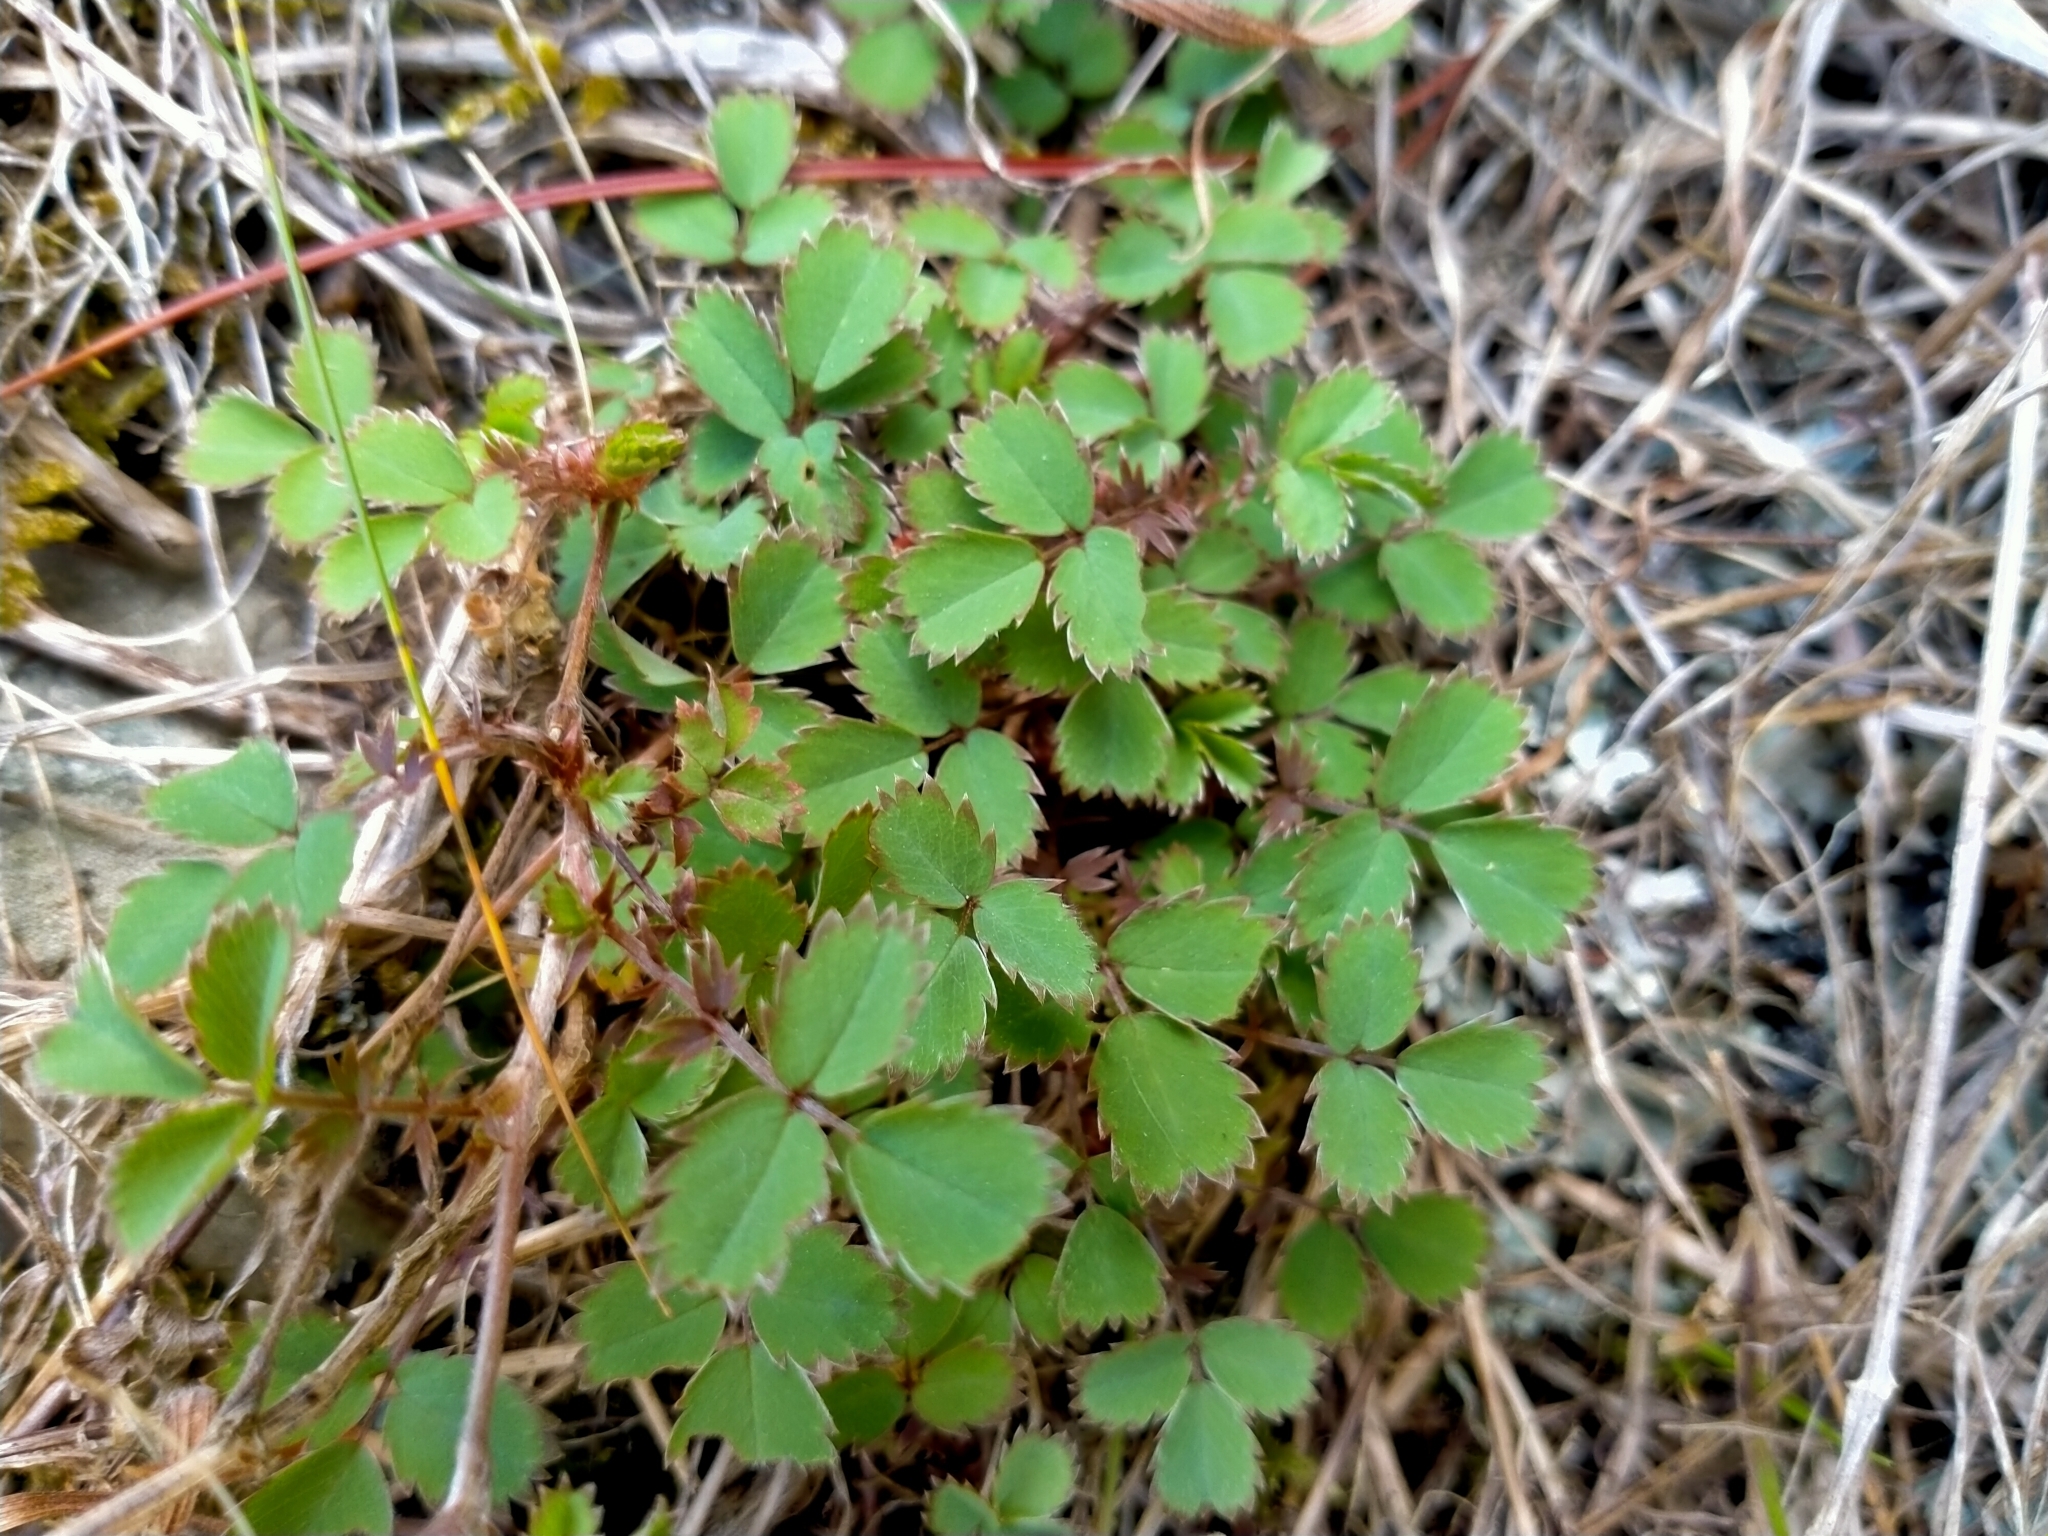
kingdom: Plantae
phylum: Tracheophyta
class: Magnoliopsida
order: Rosales
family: Rosaceae
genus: Acaena
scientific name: Acaena dumicola
